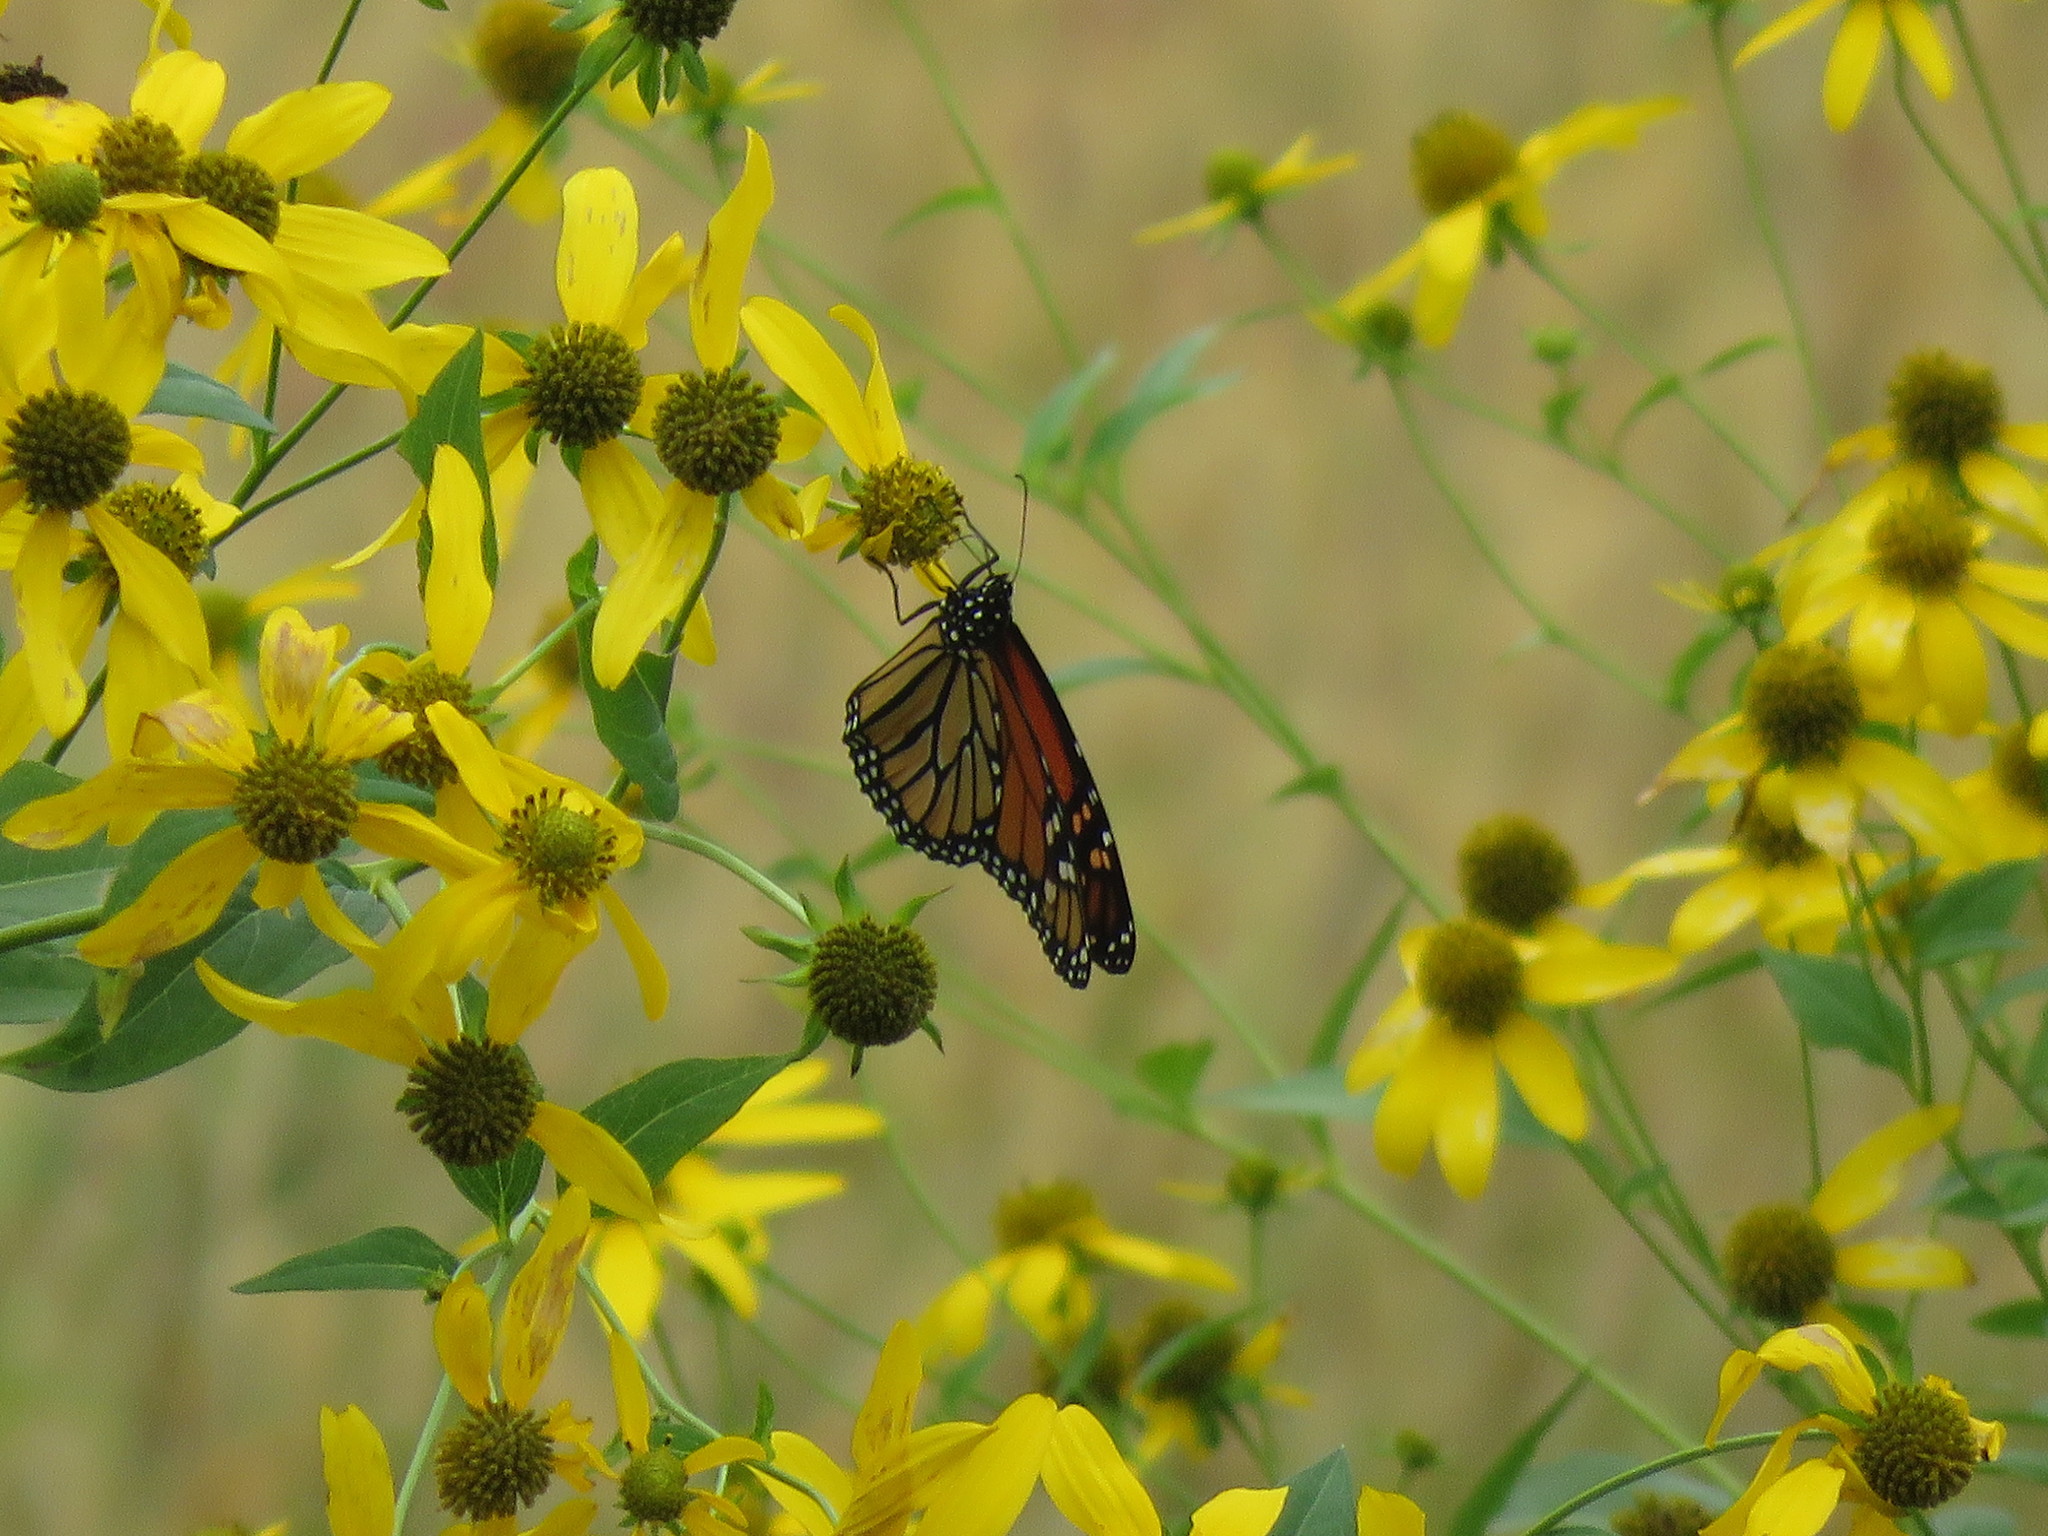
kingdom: Animalia
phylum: Arthropoda
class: Insecta
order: Lepidoptera
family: Nymphalidae
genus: Danaus
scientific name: Danaus plexippus
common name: Monarch
